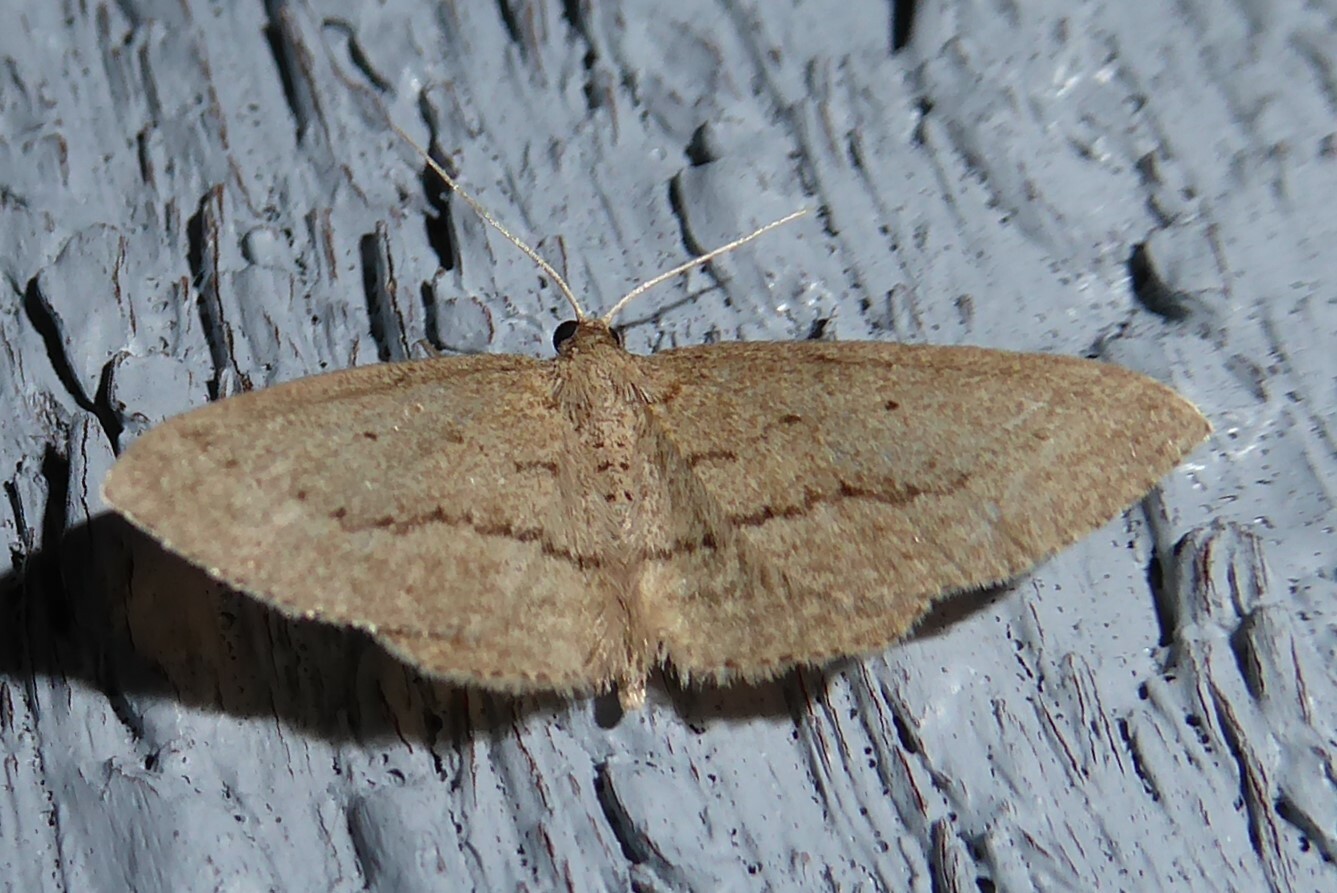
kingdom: Animalia
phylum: Arthropoda
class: Insecta
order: Lepidoptera
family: Geometridae
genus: Poecilasthena
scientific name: Poecilasthena schistaria
